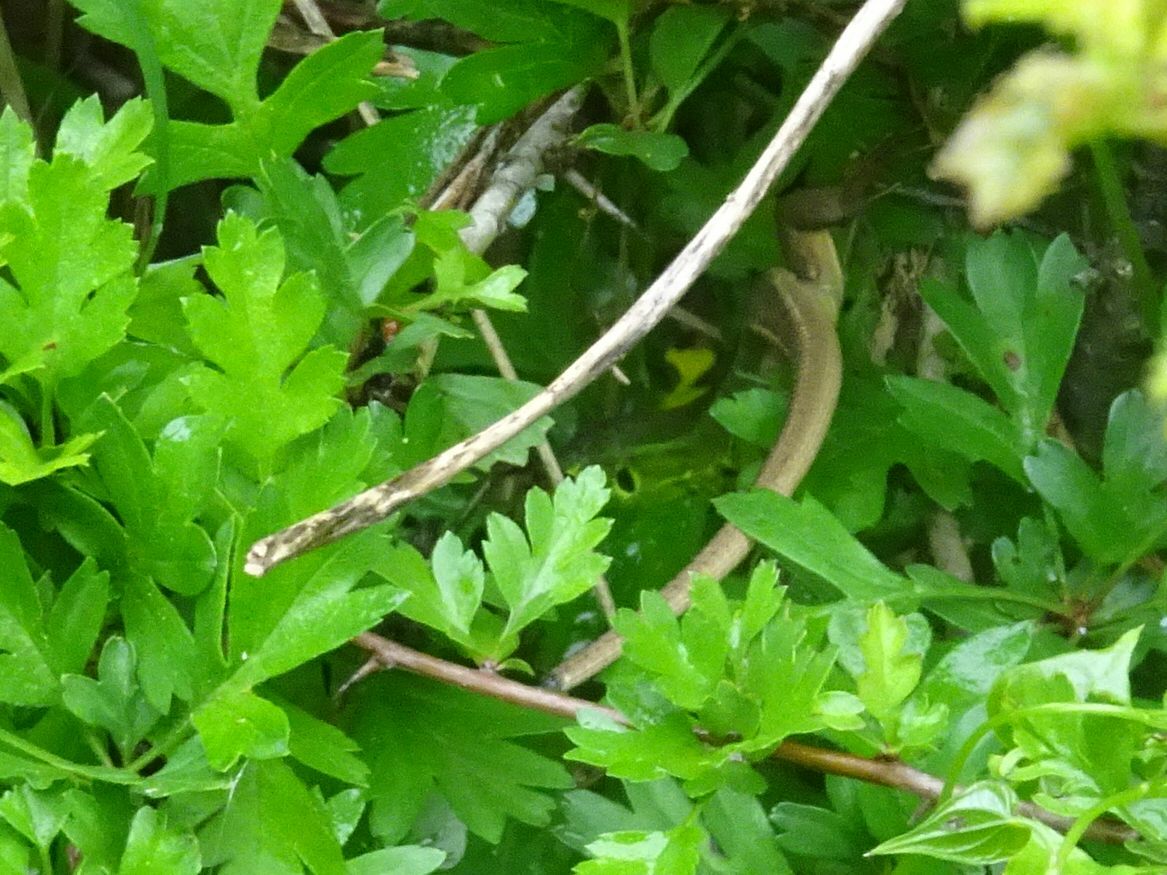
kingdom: Animalia
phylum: Chordata
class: Squamata
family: Lacertidae
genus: Lacerta
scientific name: Lacerta bilineata
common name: Western green lizard
